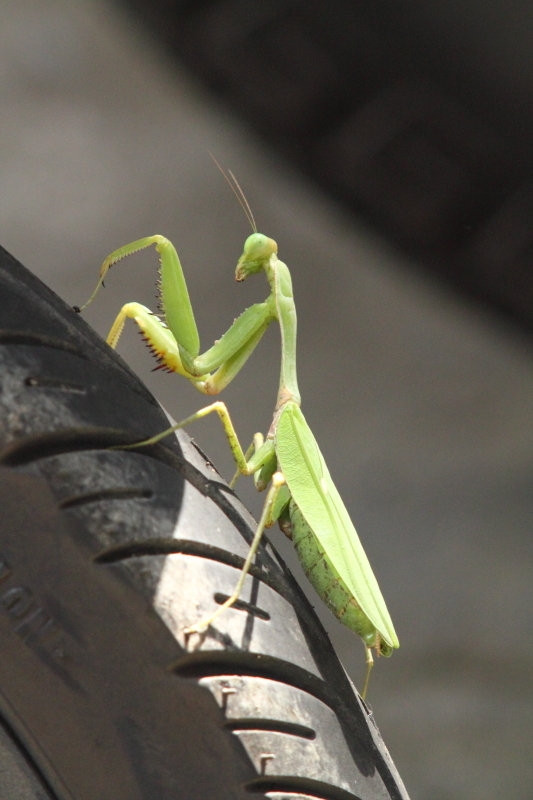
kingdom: Animalia
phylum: Arthropoda
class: Insecta
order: Mantodea
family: Mantidae
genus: Hierodula
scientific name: Hierodula quinquepatellata
